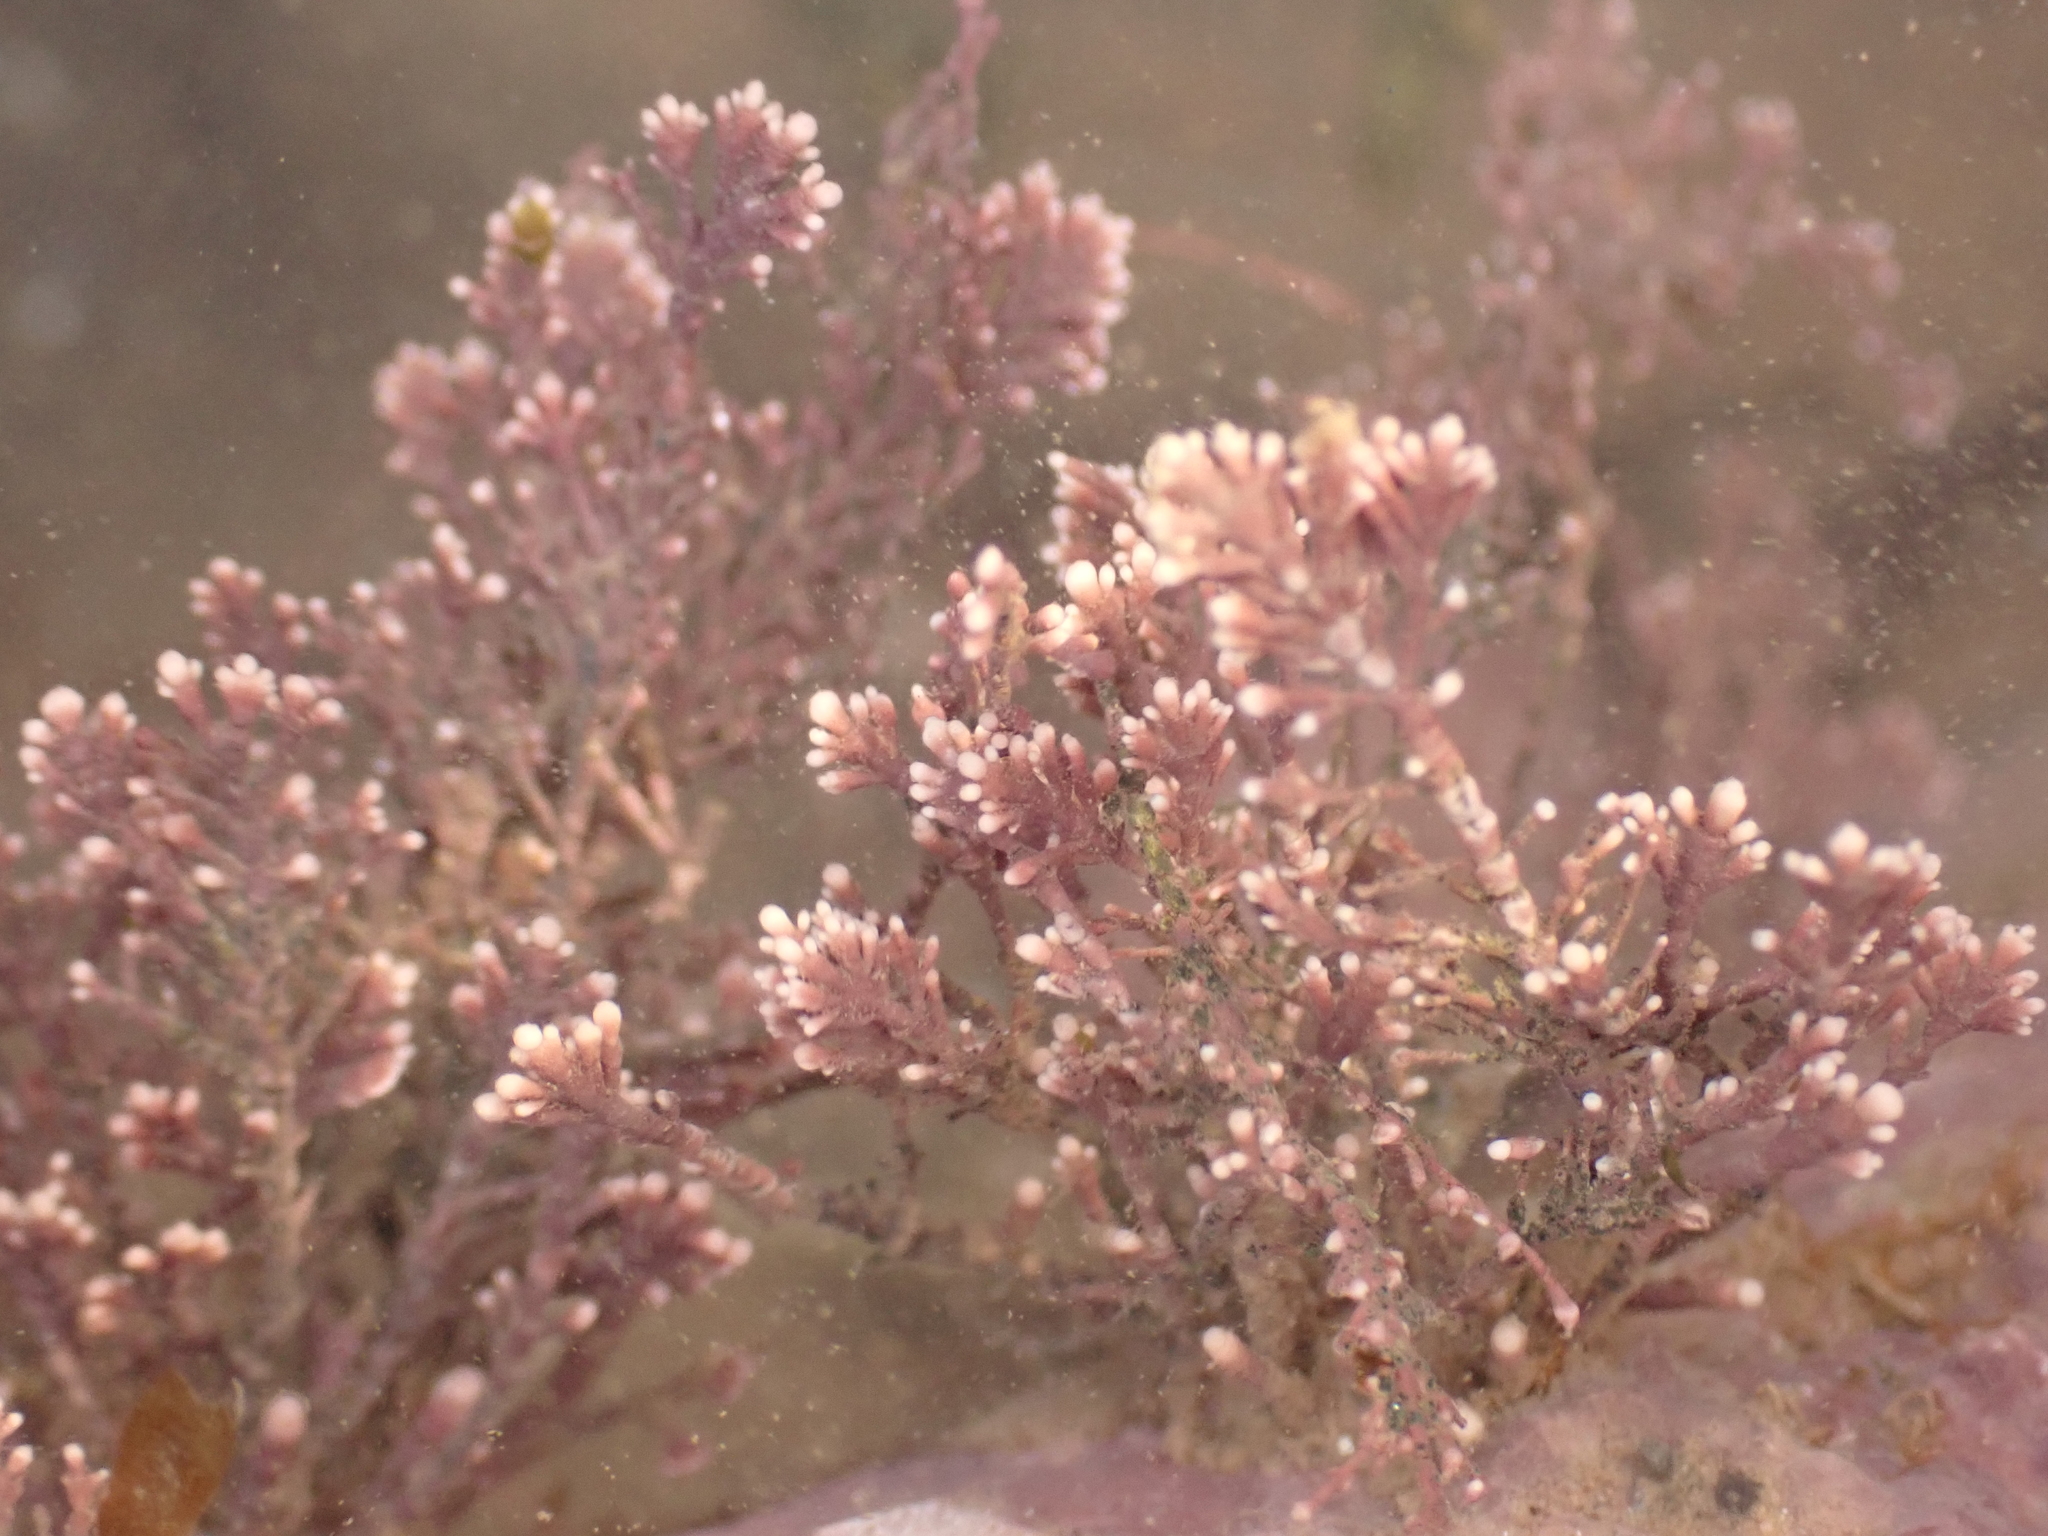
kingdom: Plantae
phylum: Rhodophyta
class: Florideophyceae
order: Corallinales
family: Corallinaceae
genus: Corallina
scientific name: Corallina officinalis
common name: Coral weed
